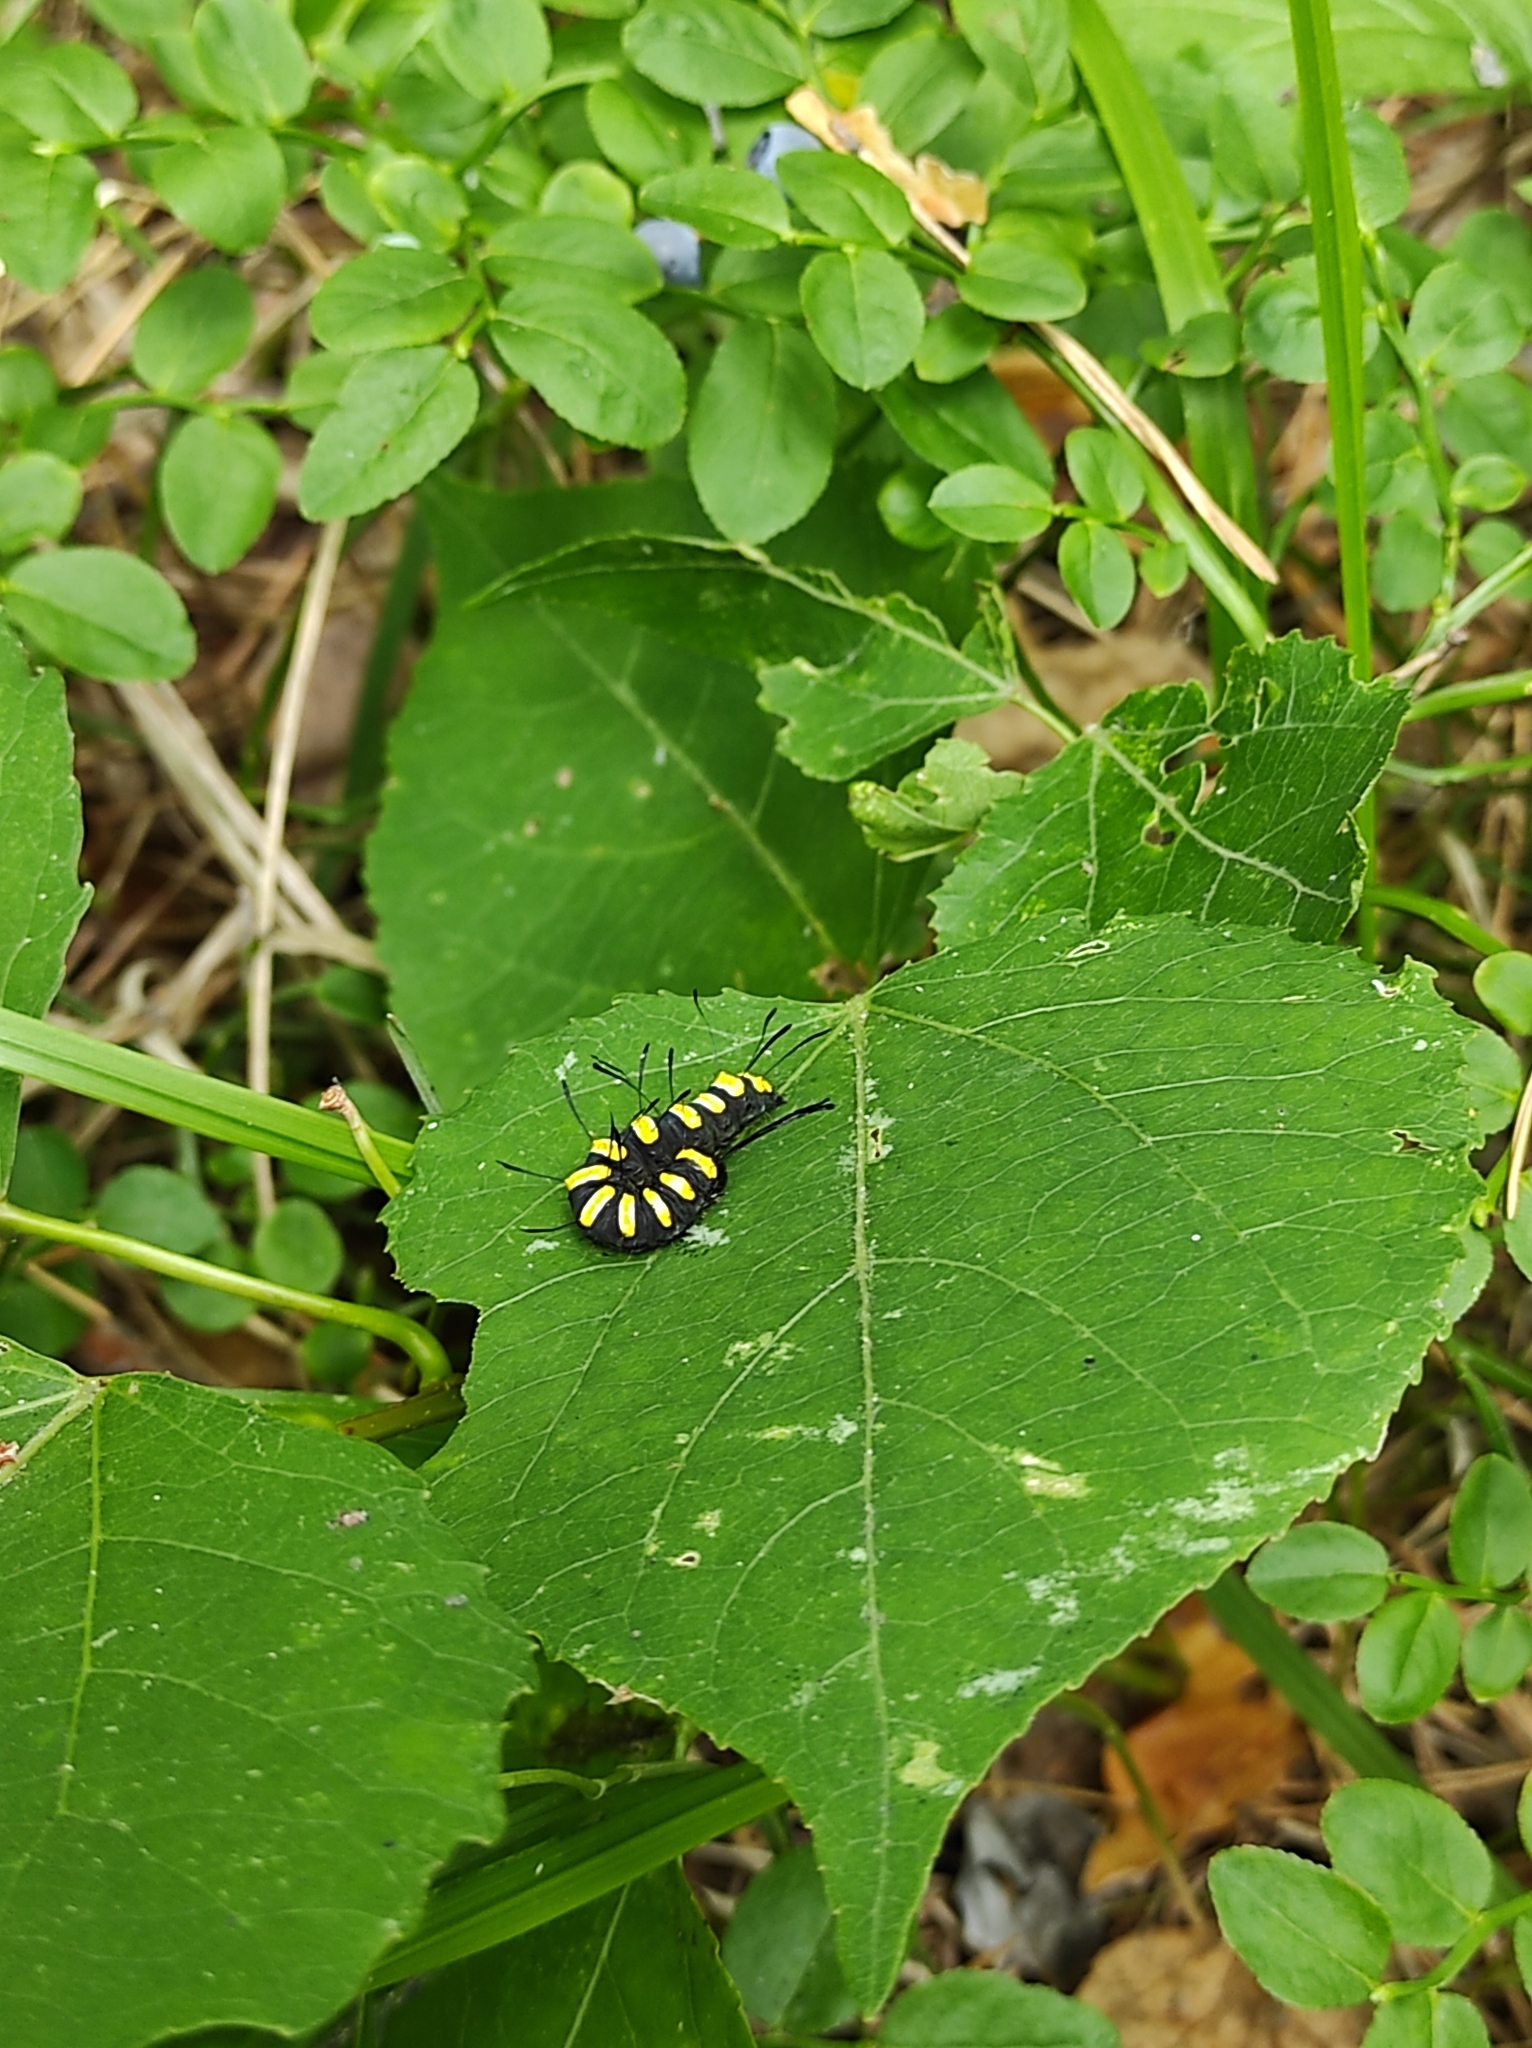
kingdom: Animalia
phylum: Arthropoda
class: Insecta
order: Lepidoptera
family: Noctuidae
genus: Acronicta
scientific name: Acronicta alni
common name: Alder moth
